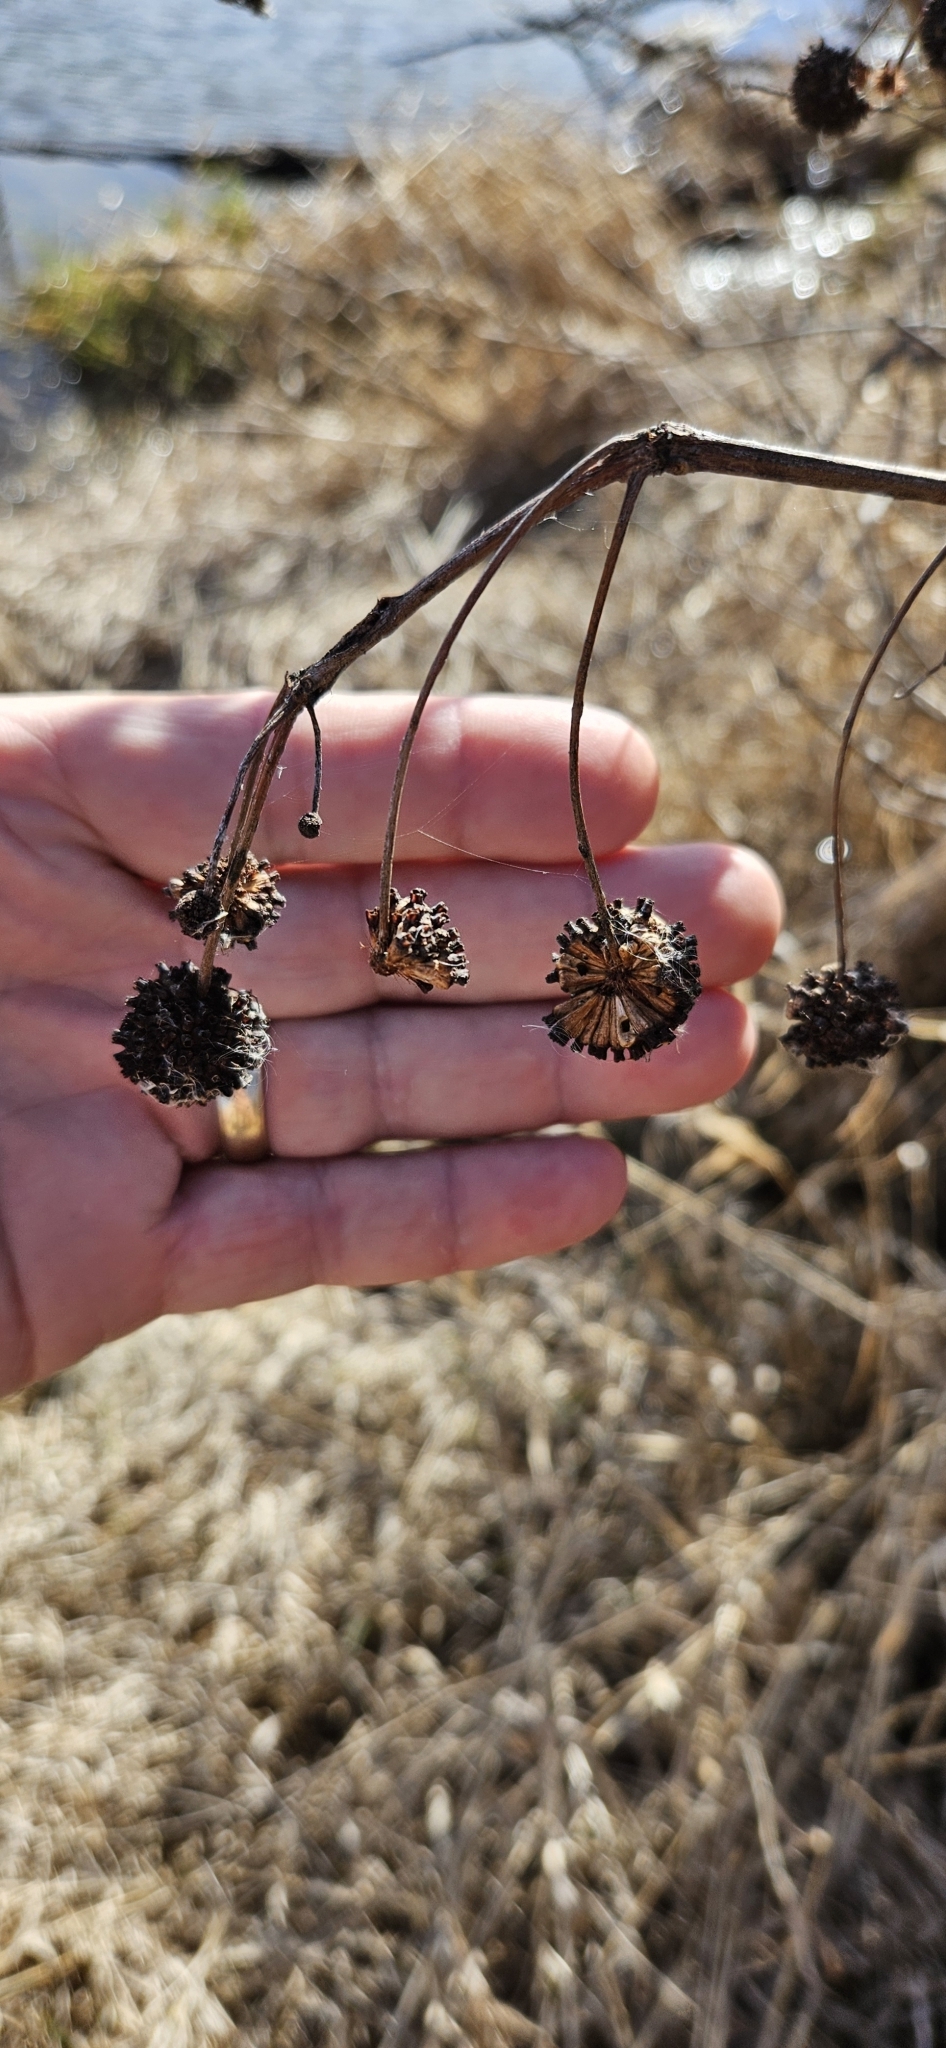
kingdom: Plantae
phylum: Tracheophyta
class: Magnoliopsida
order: Gentianales
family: Rubiaceae
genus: Cephalanthus
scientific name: Cephalanthus occidentalis
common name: Button-willow
